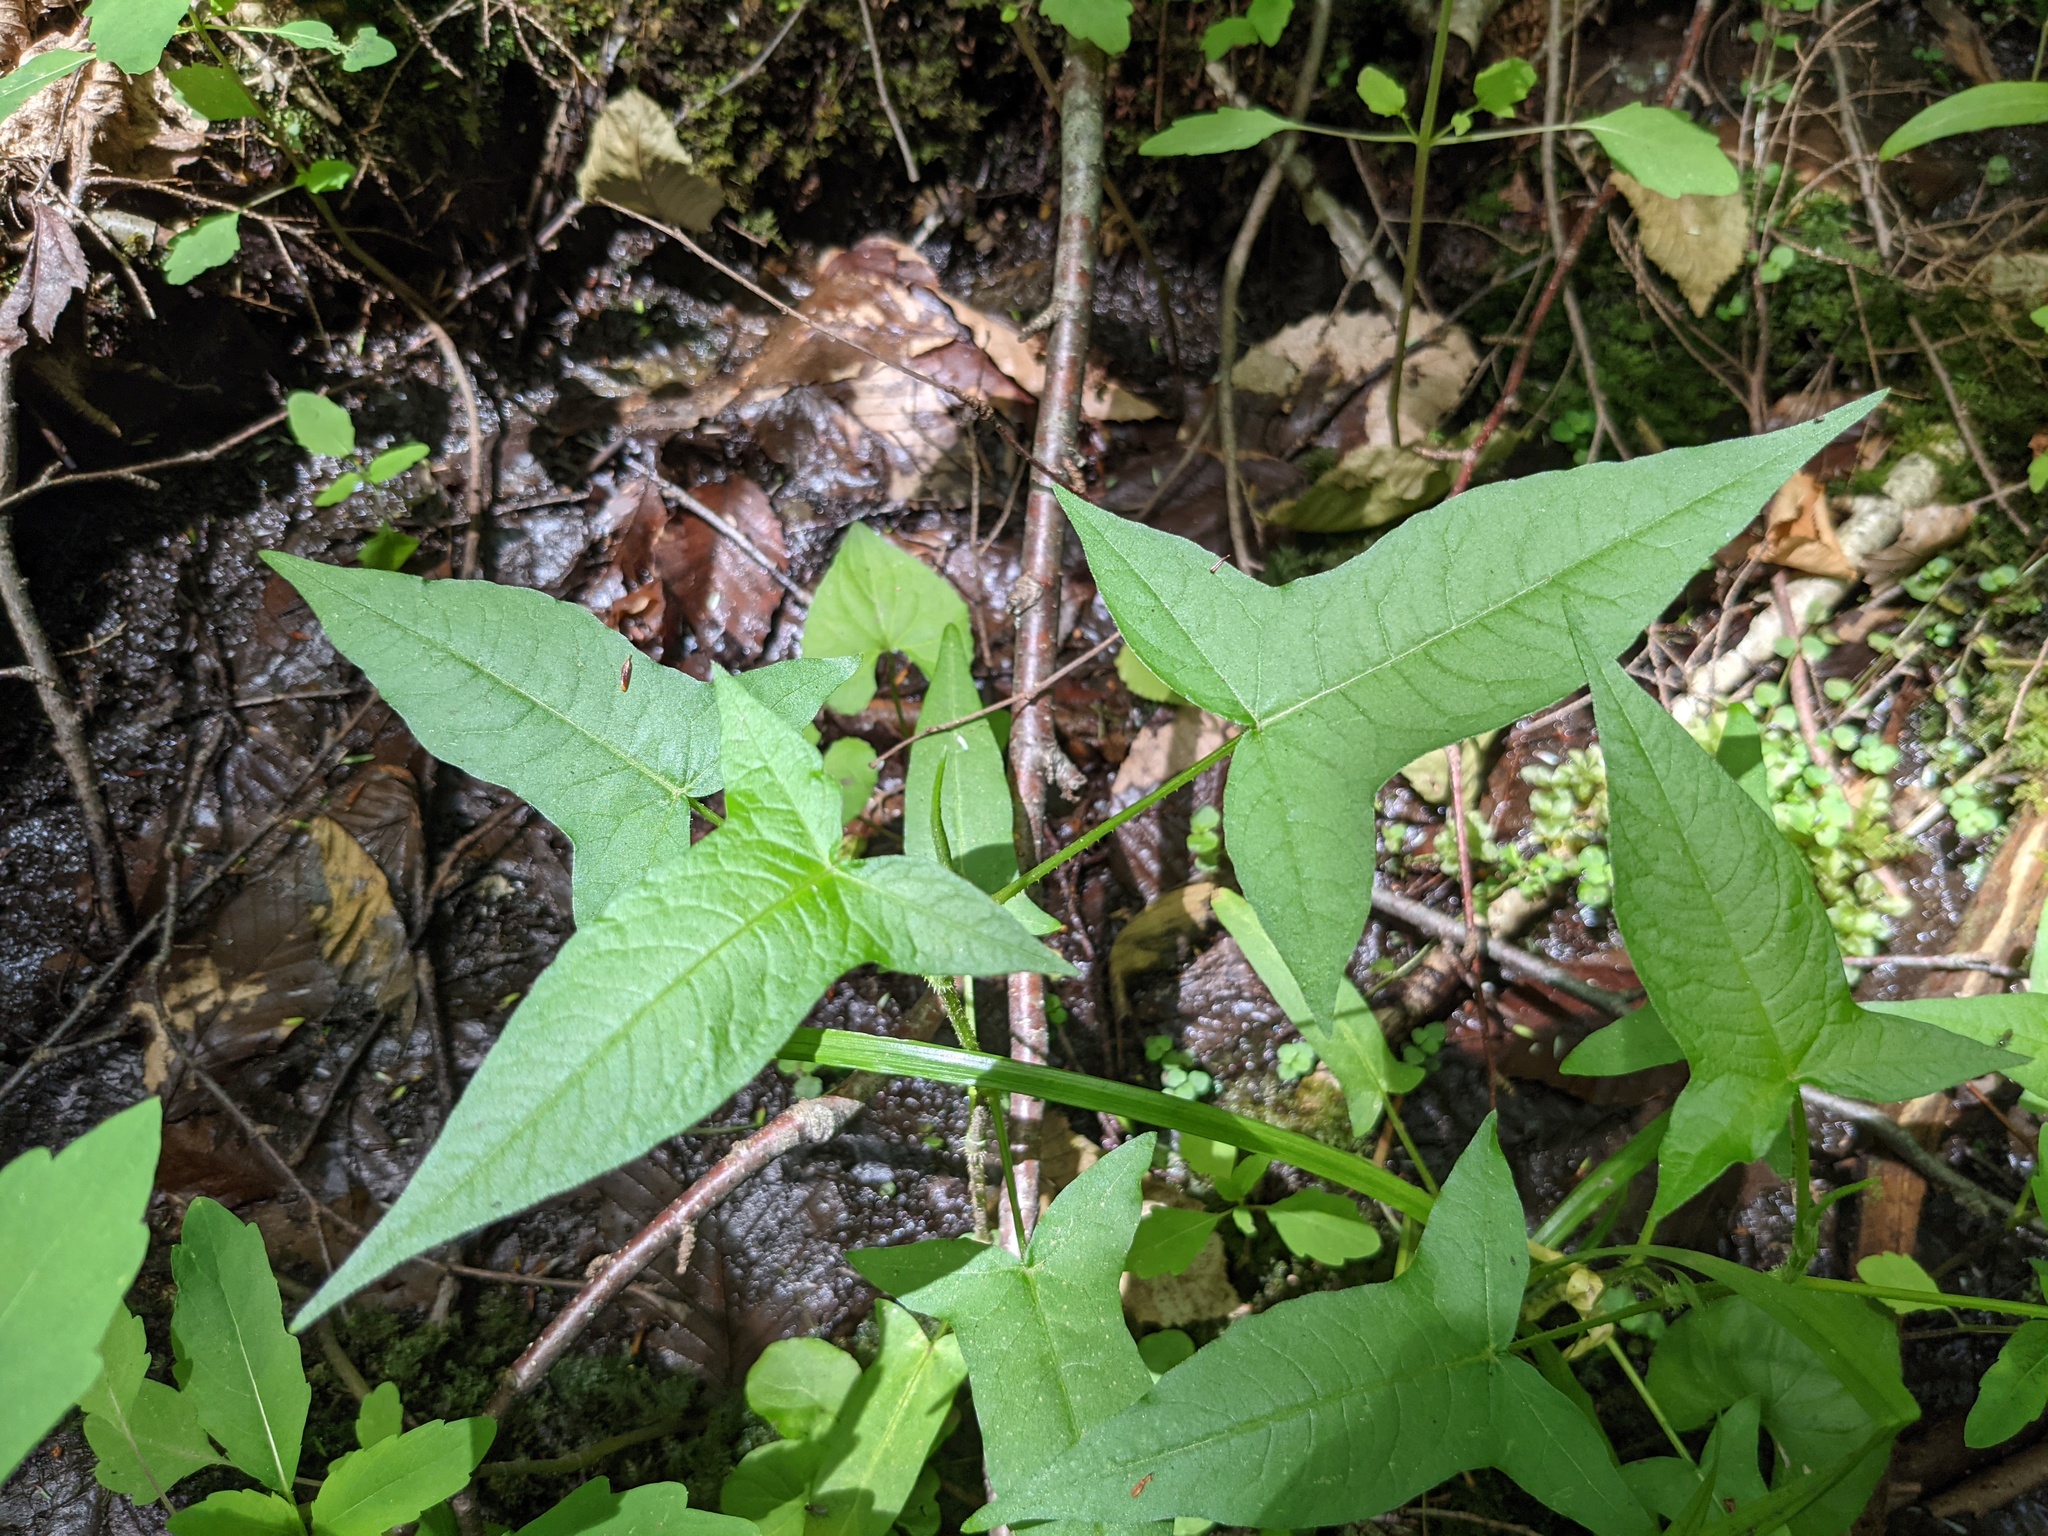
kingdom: Plantae
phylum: Tracheophyta
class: Magnoliopsida
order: Caryophyllales
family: Polygonaceae
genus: Persicaria
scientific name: Persicaria arifolia
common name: Halberd-leaved tear-thumb
